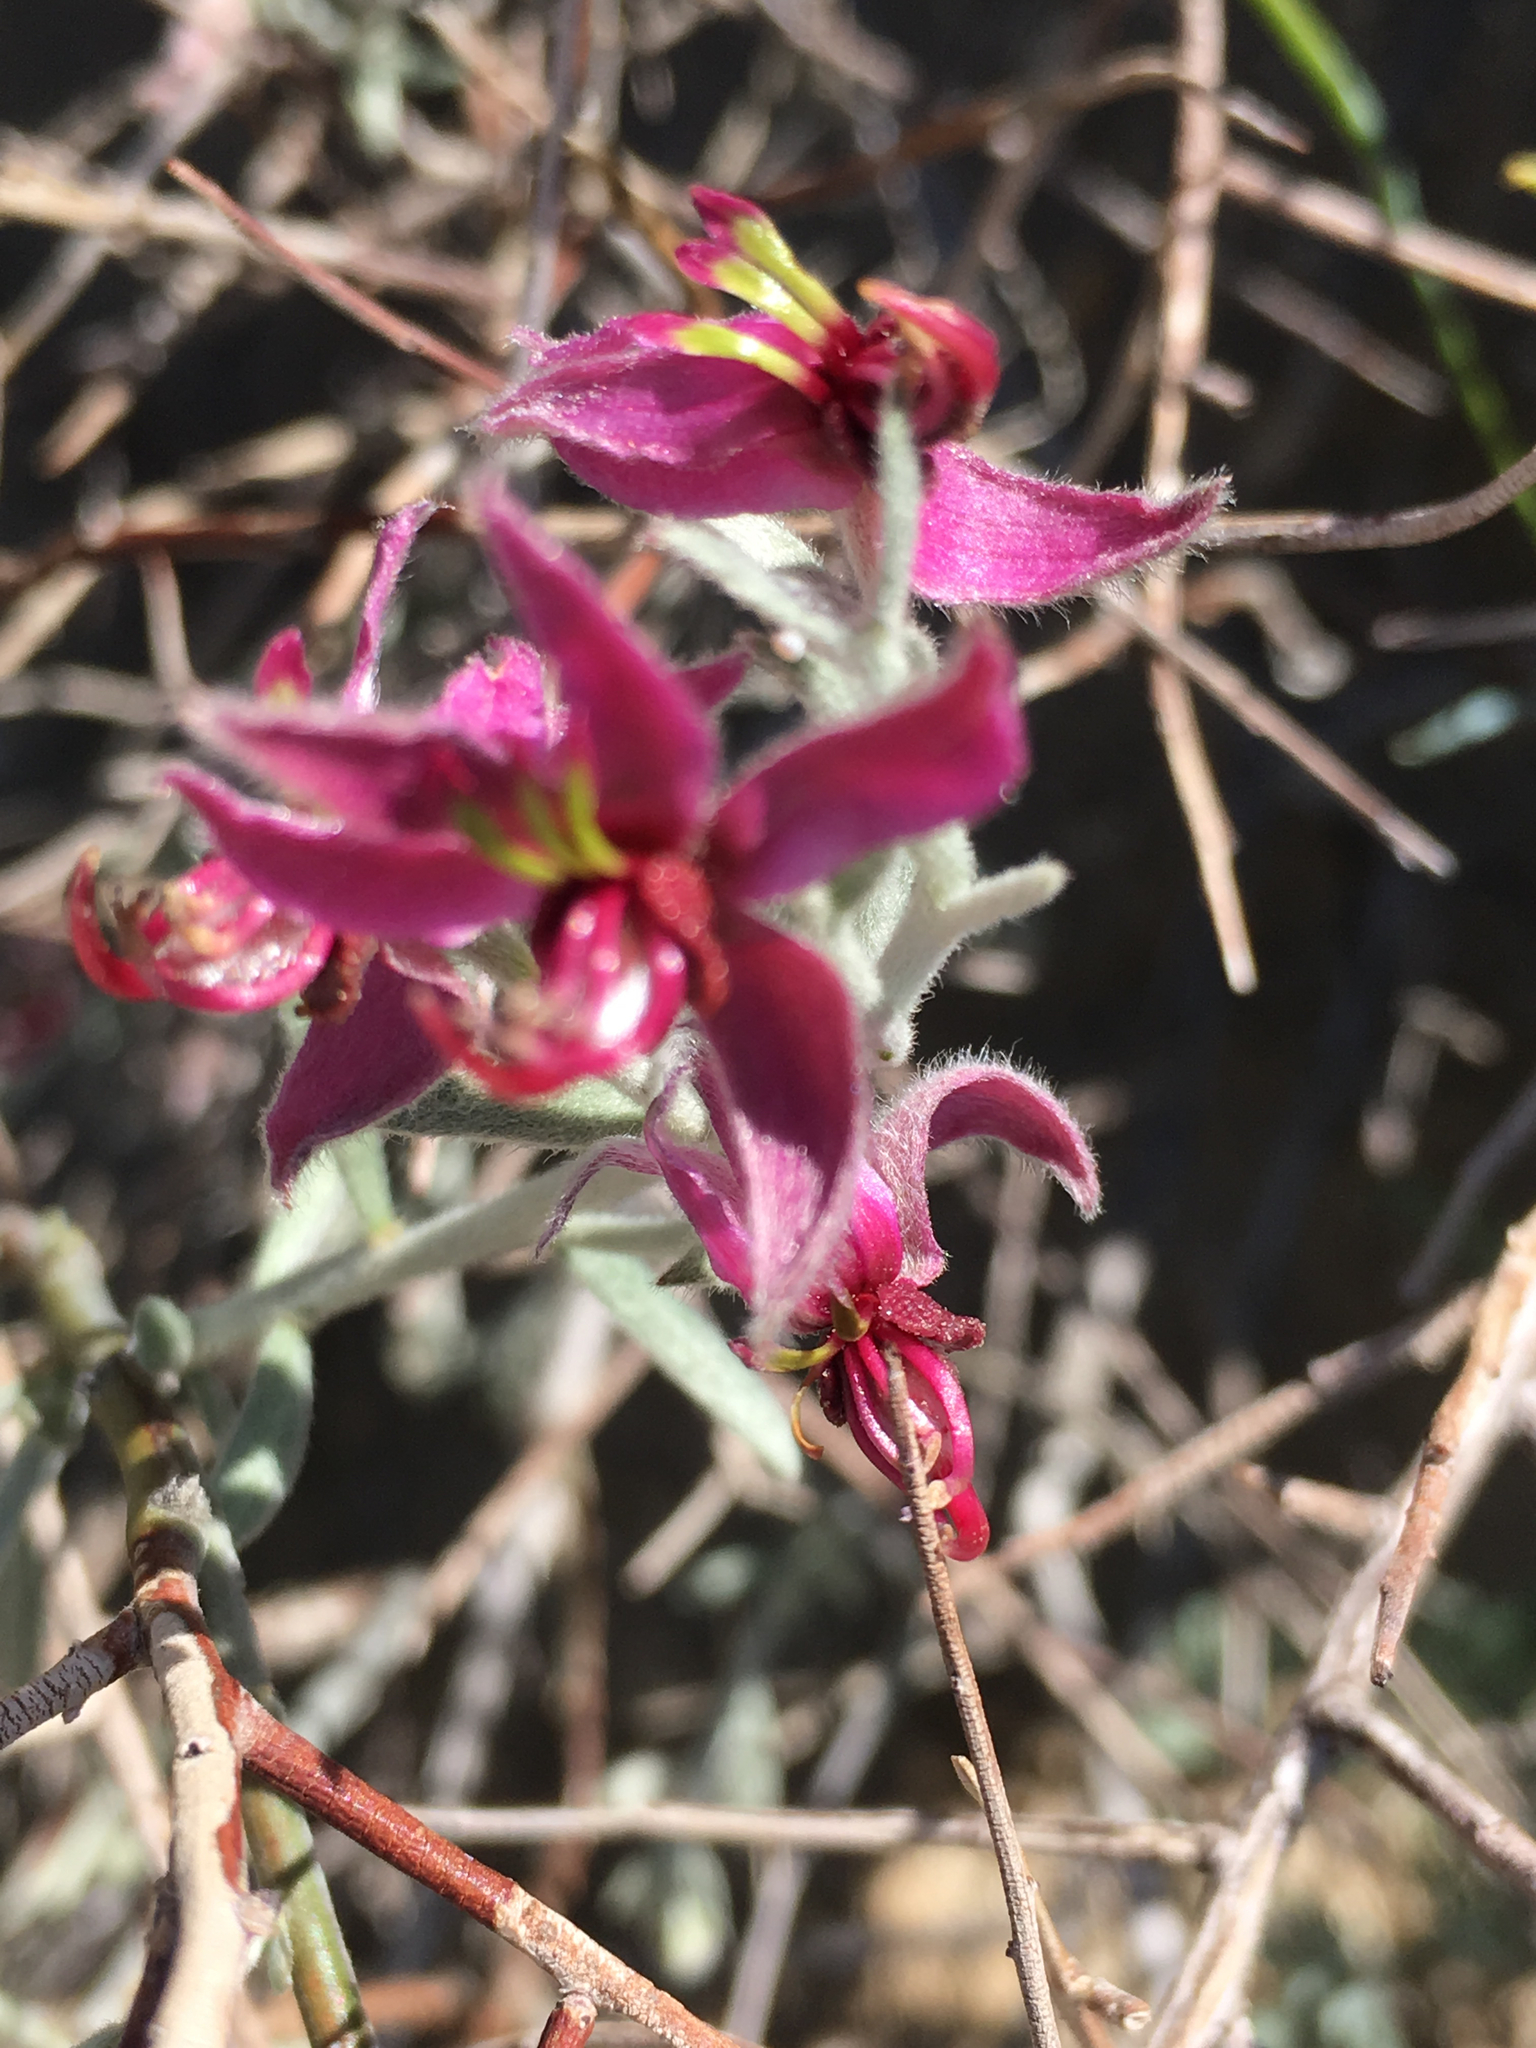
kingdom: Plantae
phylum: Tracheophyta
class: Magnoliopsida
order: Zygophyllales
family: Krameriaceae
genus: Krameria
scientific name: Krameria bicolor
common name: White ratany
